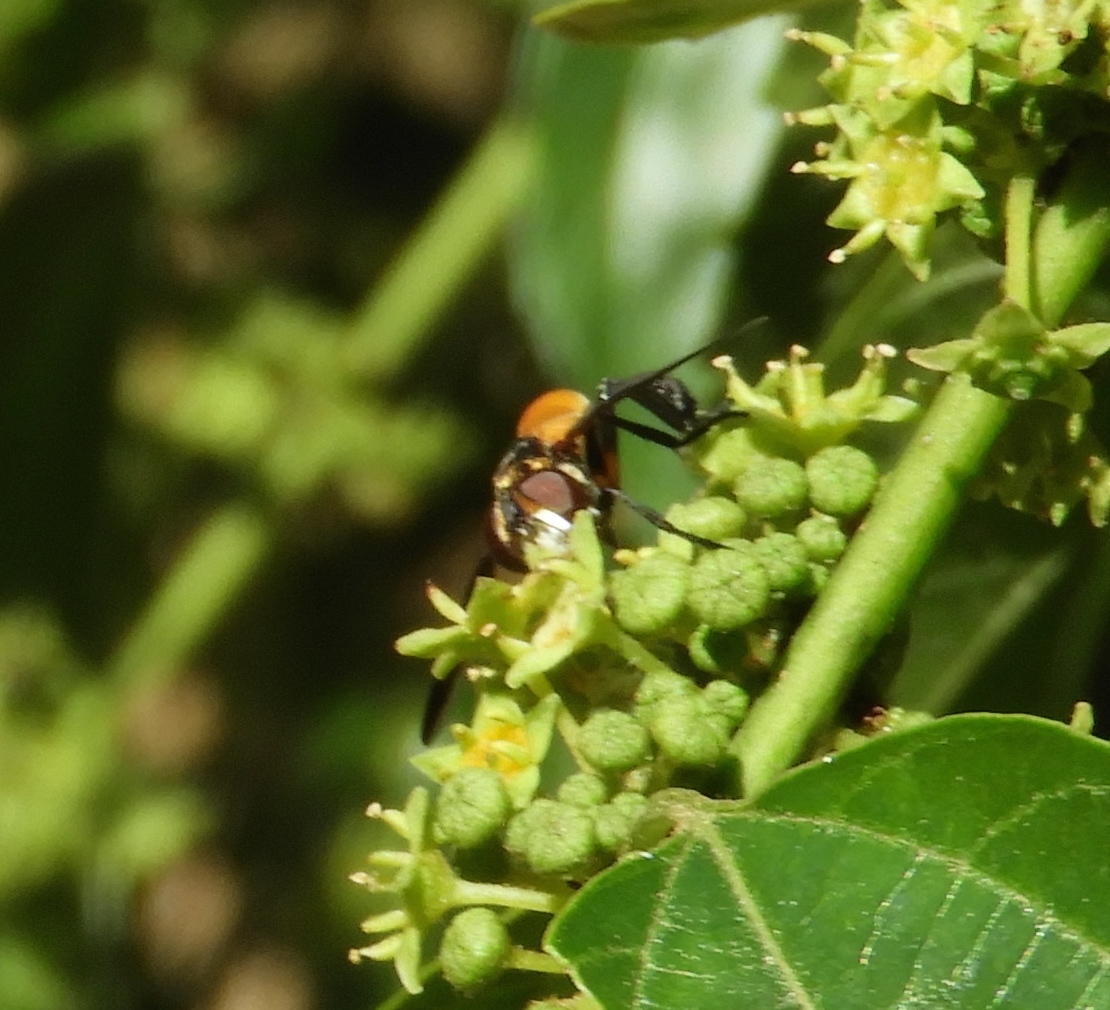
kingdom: Animalia
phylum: Arthropoda
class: Insecta
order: Diptera
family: Tachinidae
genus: Trichopoda
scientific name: Trichopoda
